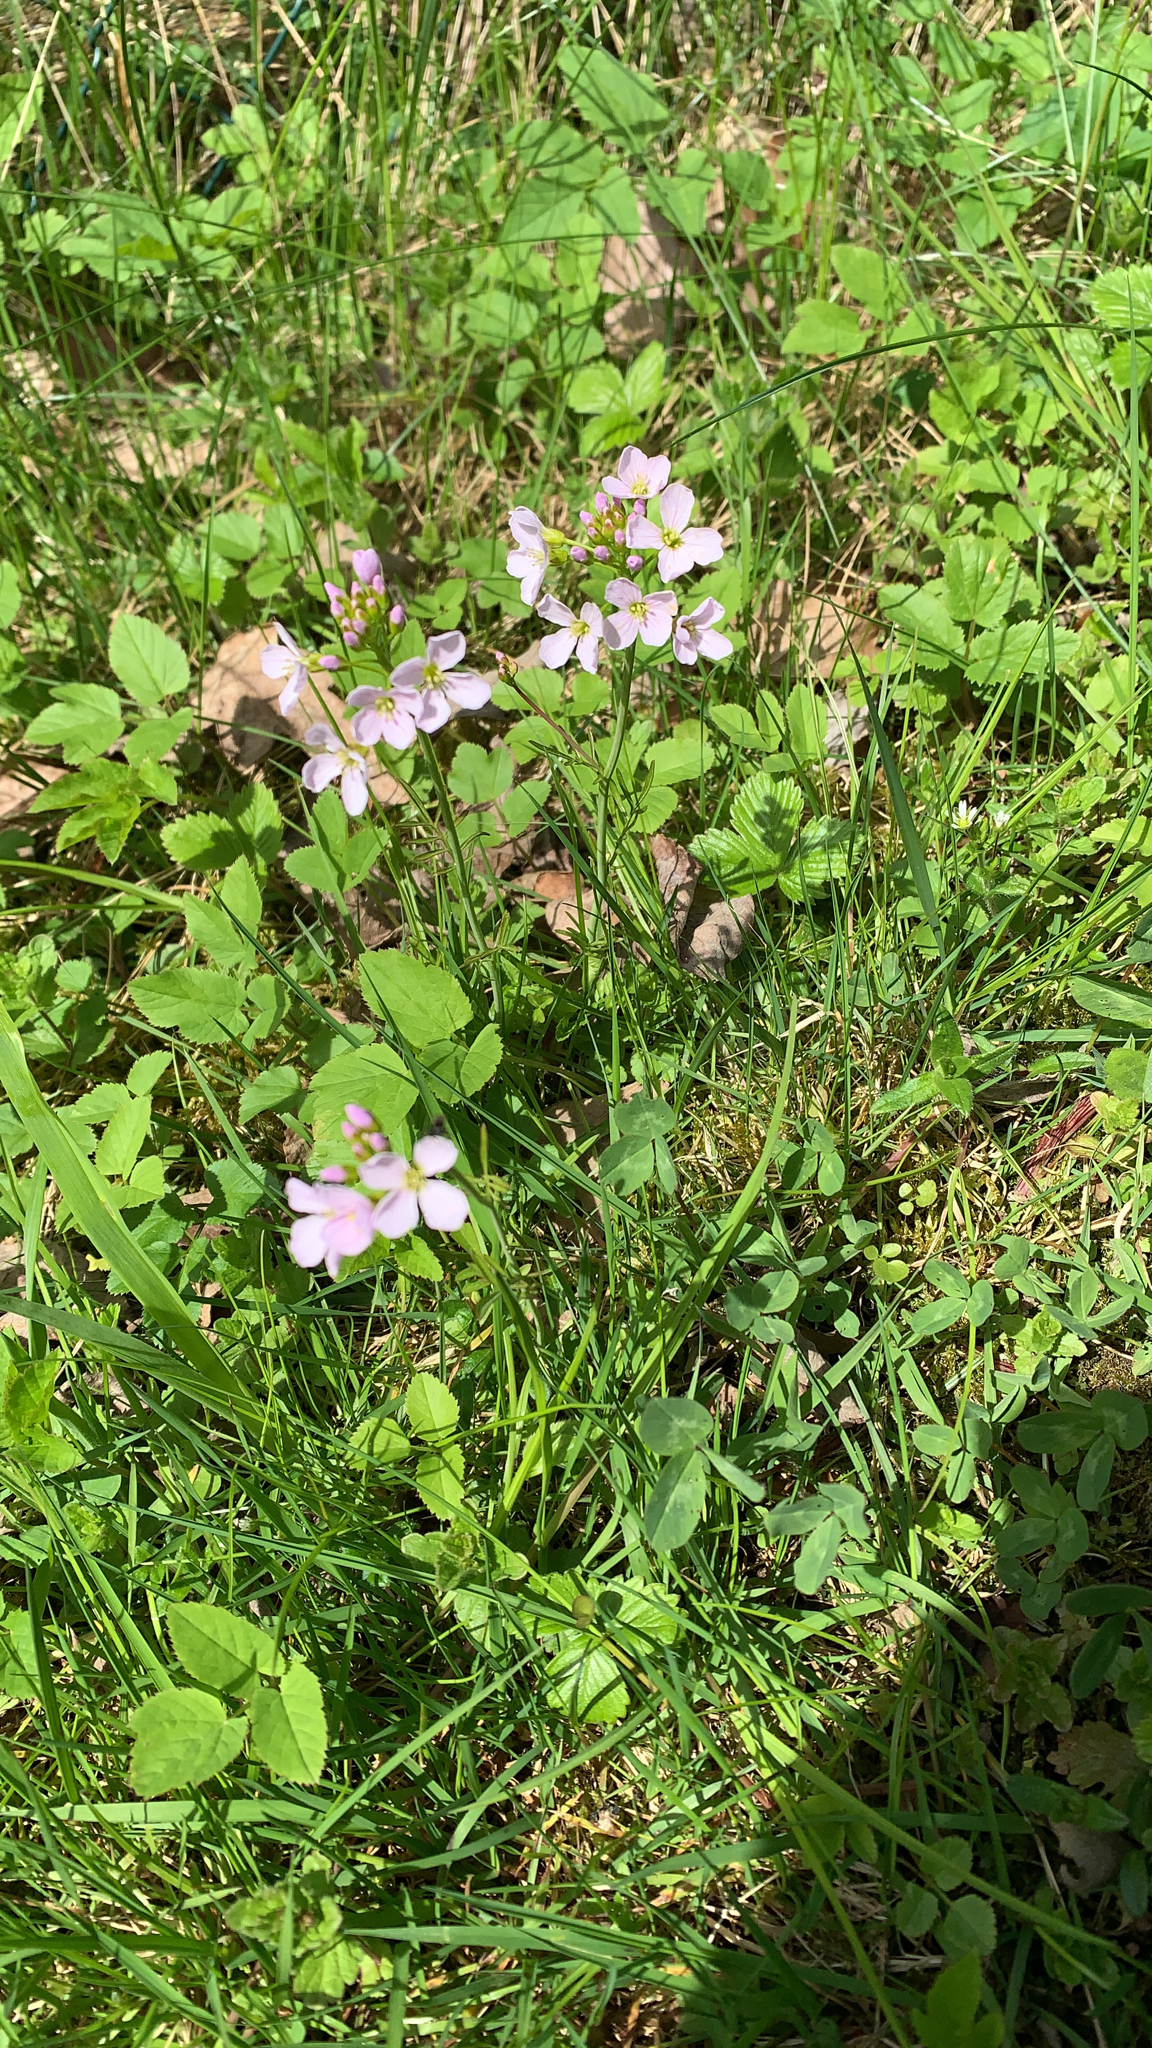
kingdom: Plantae
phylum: Tracheophyta
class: Magnoliopsida
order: Brassicales
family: Brassicaceae
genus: Cardamine
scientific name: Cardamine pratensis
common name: Cuckoo flower
